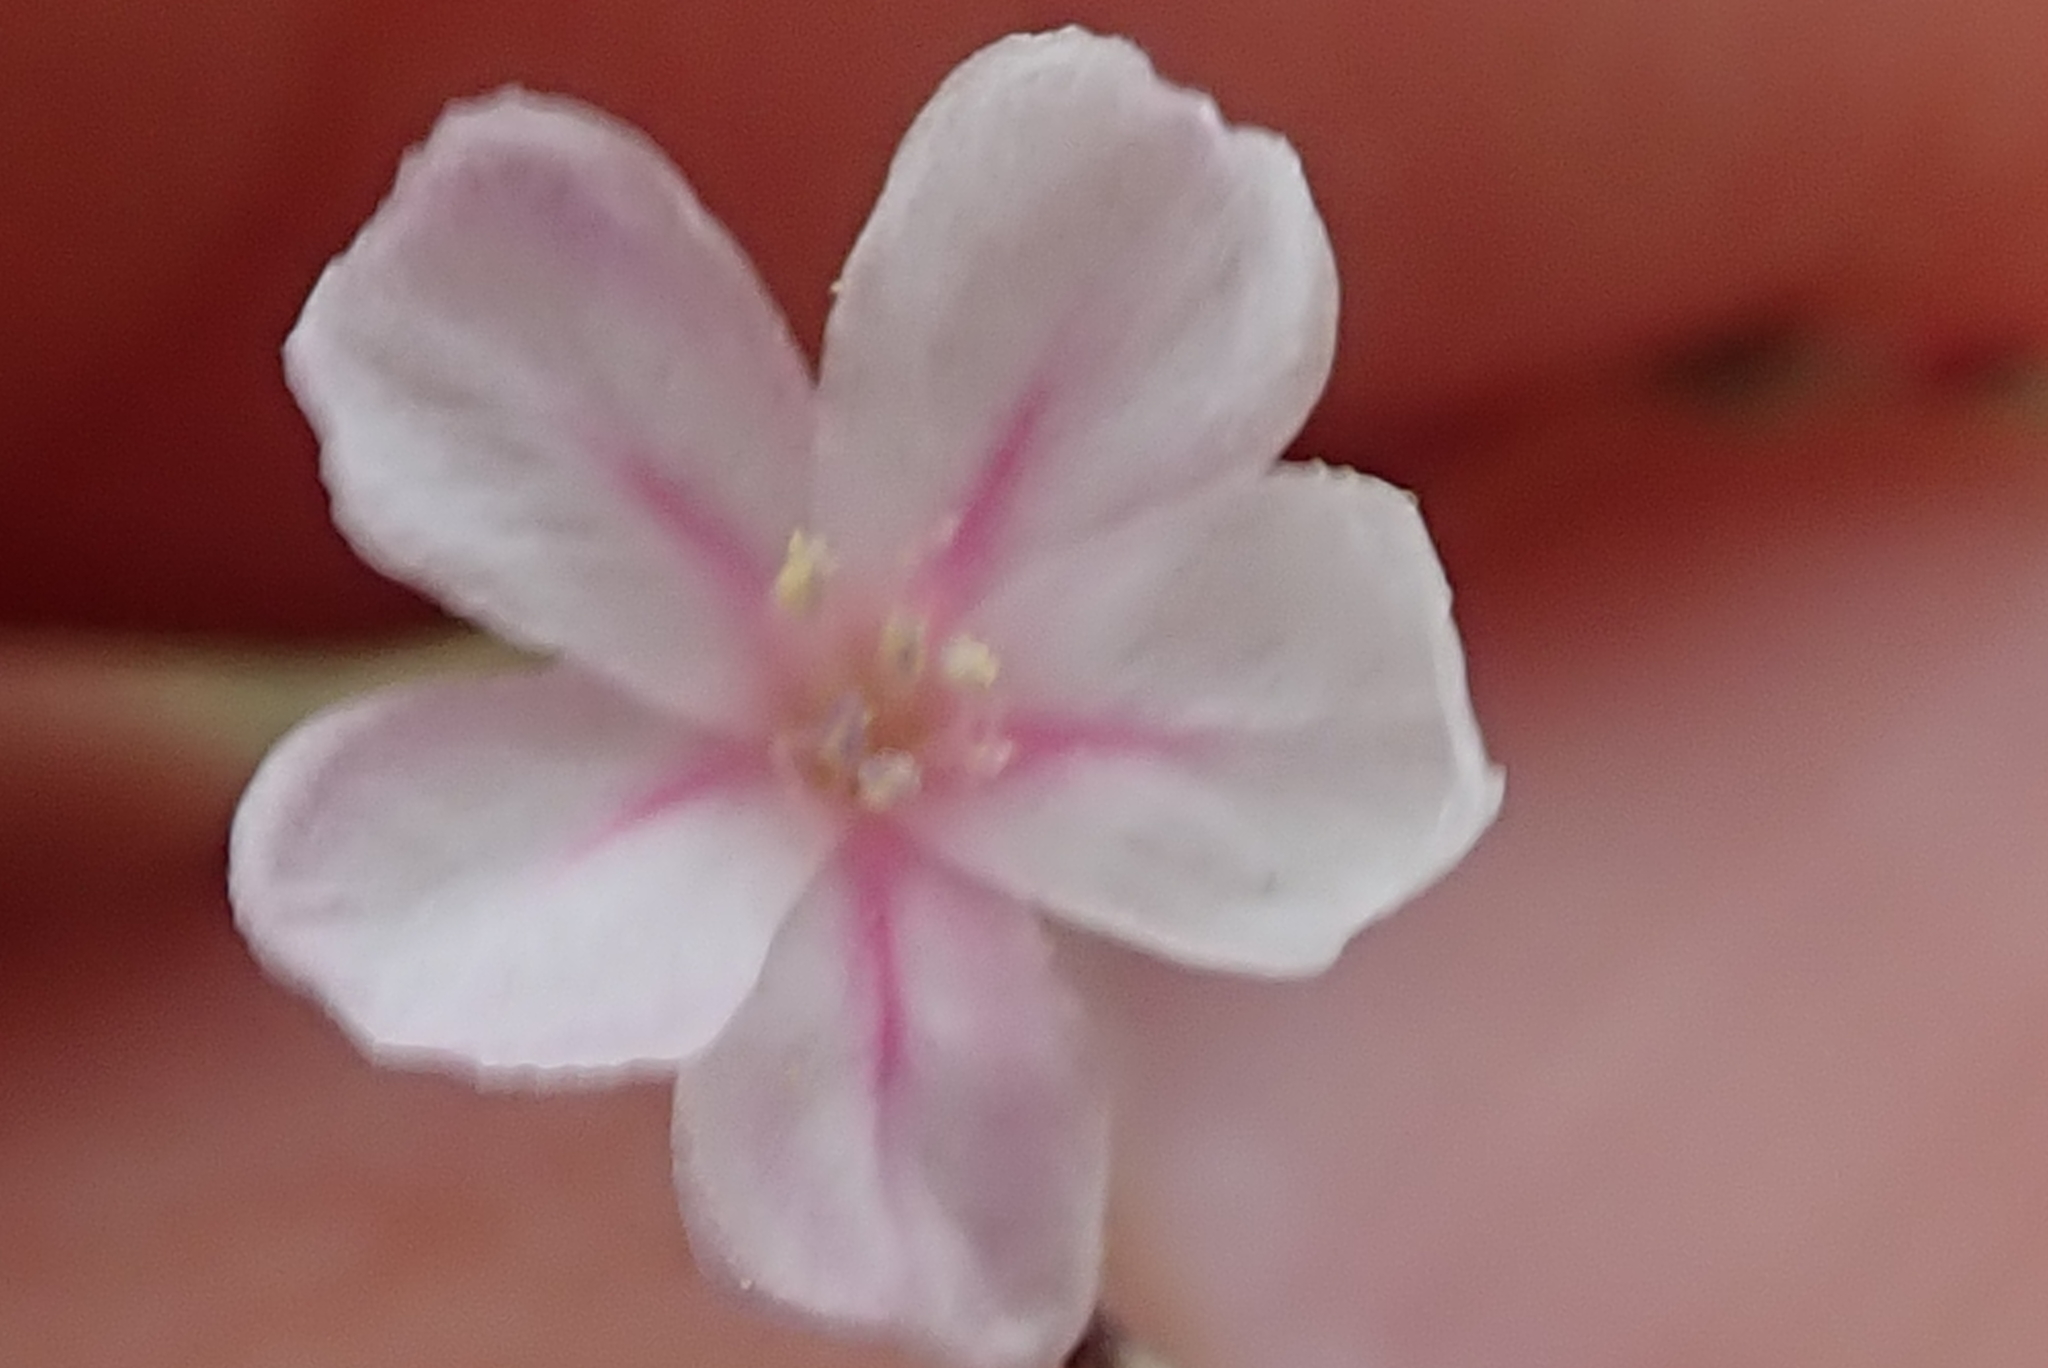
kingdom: Plantae
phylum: Tracheophyta
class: Magnoliopsida
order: Caryophyllales
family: Plumbaginaceae
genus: Limonium
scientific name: Limonium anthericoides
